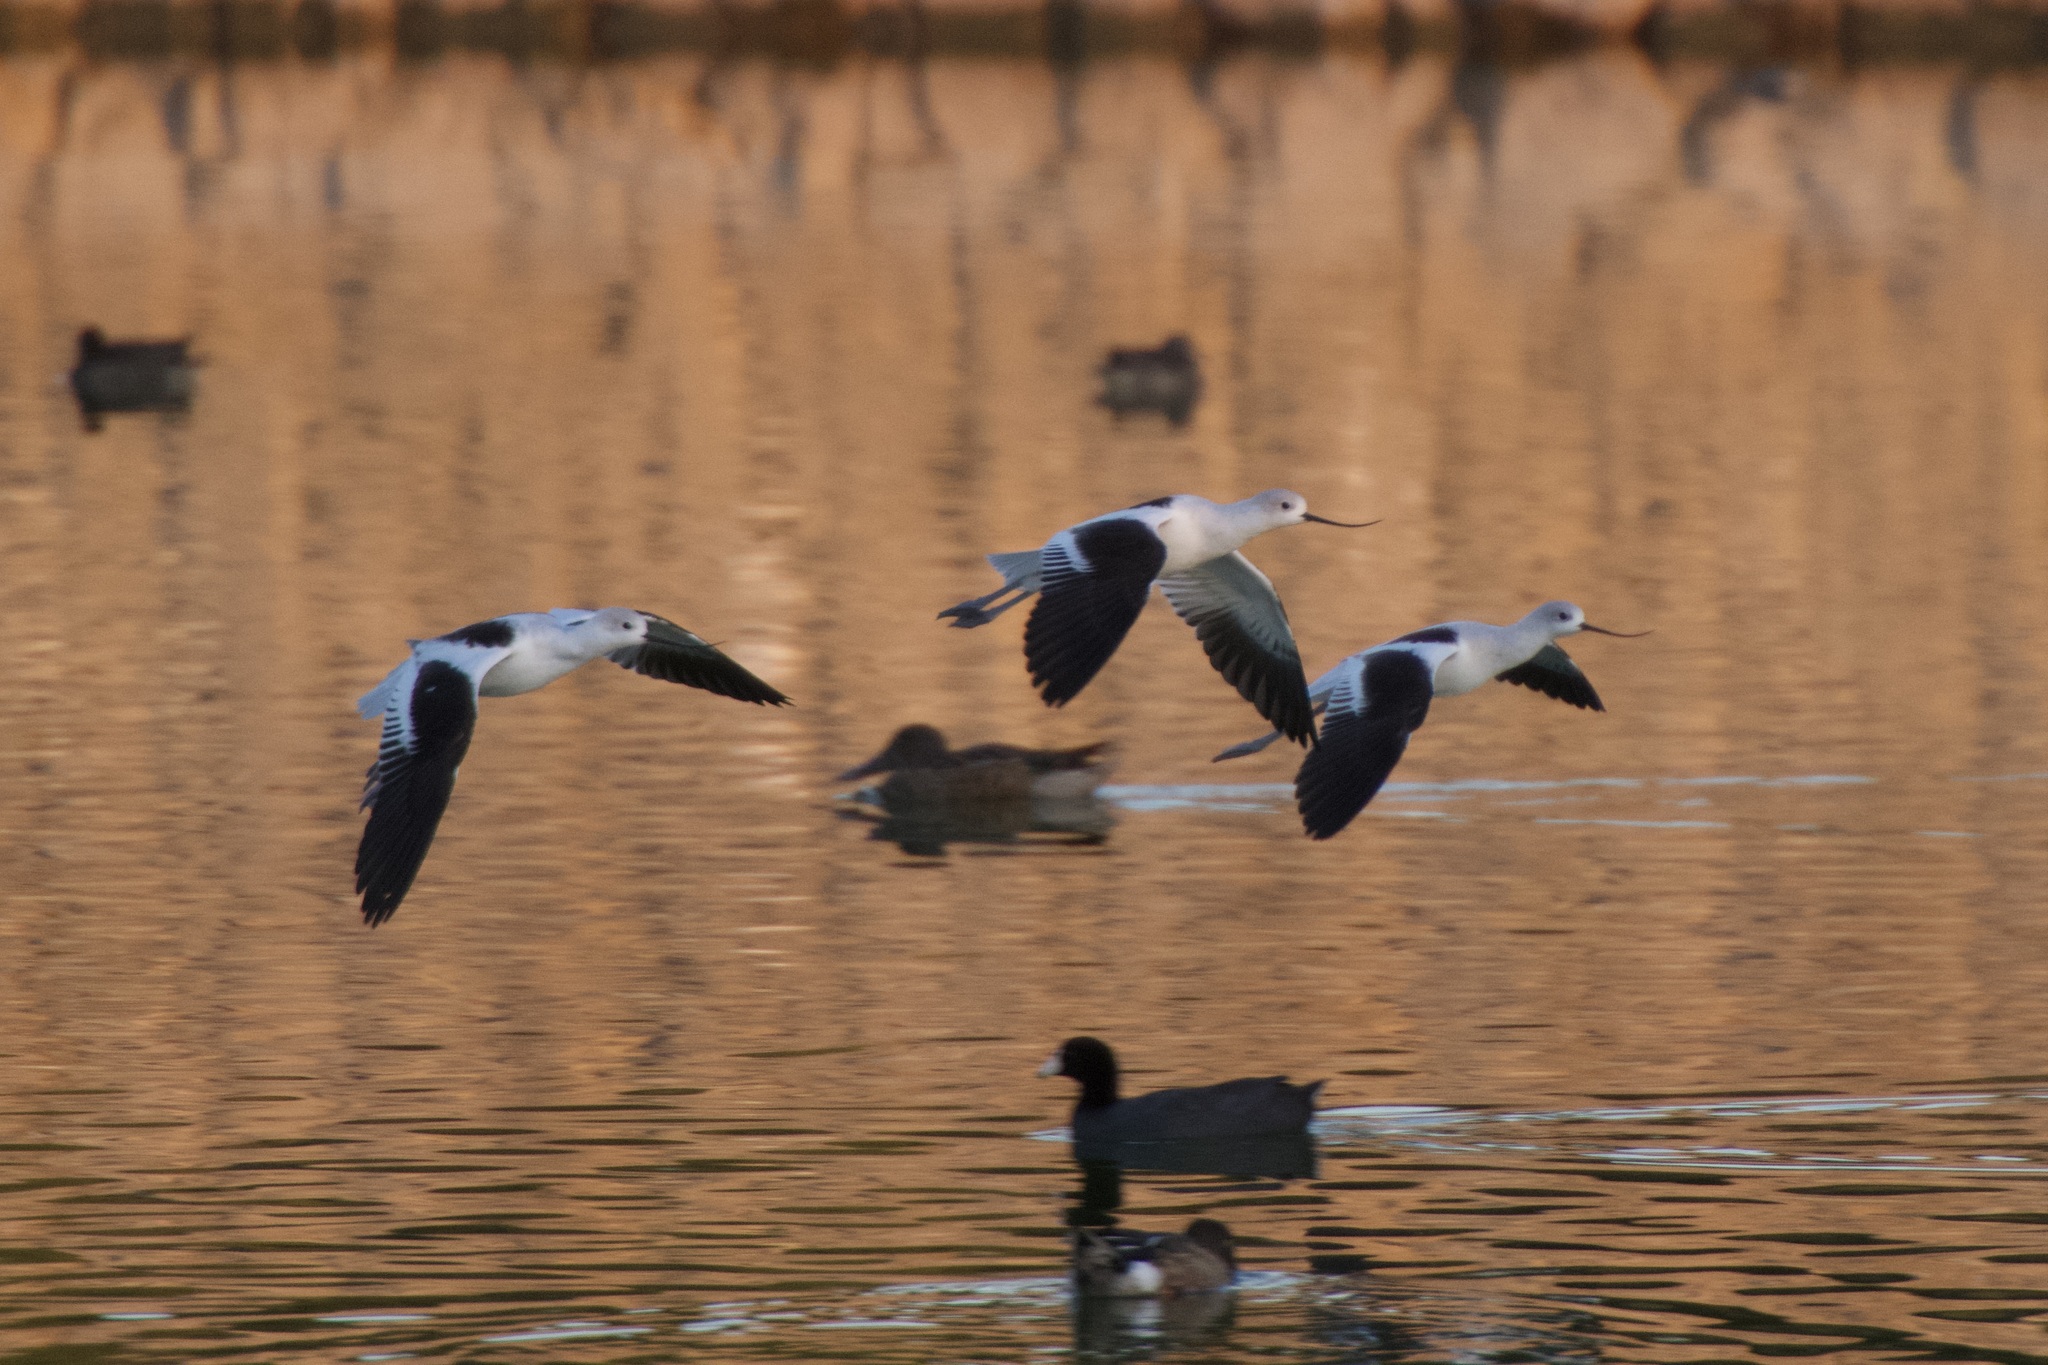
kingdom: Animalia
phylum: Chordata
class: Aves
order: Charadriiformes
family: Recurvirostridae
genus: Recurvirostra
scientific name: Recurvirostra americana
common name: American avocet
